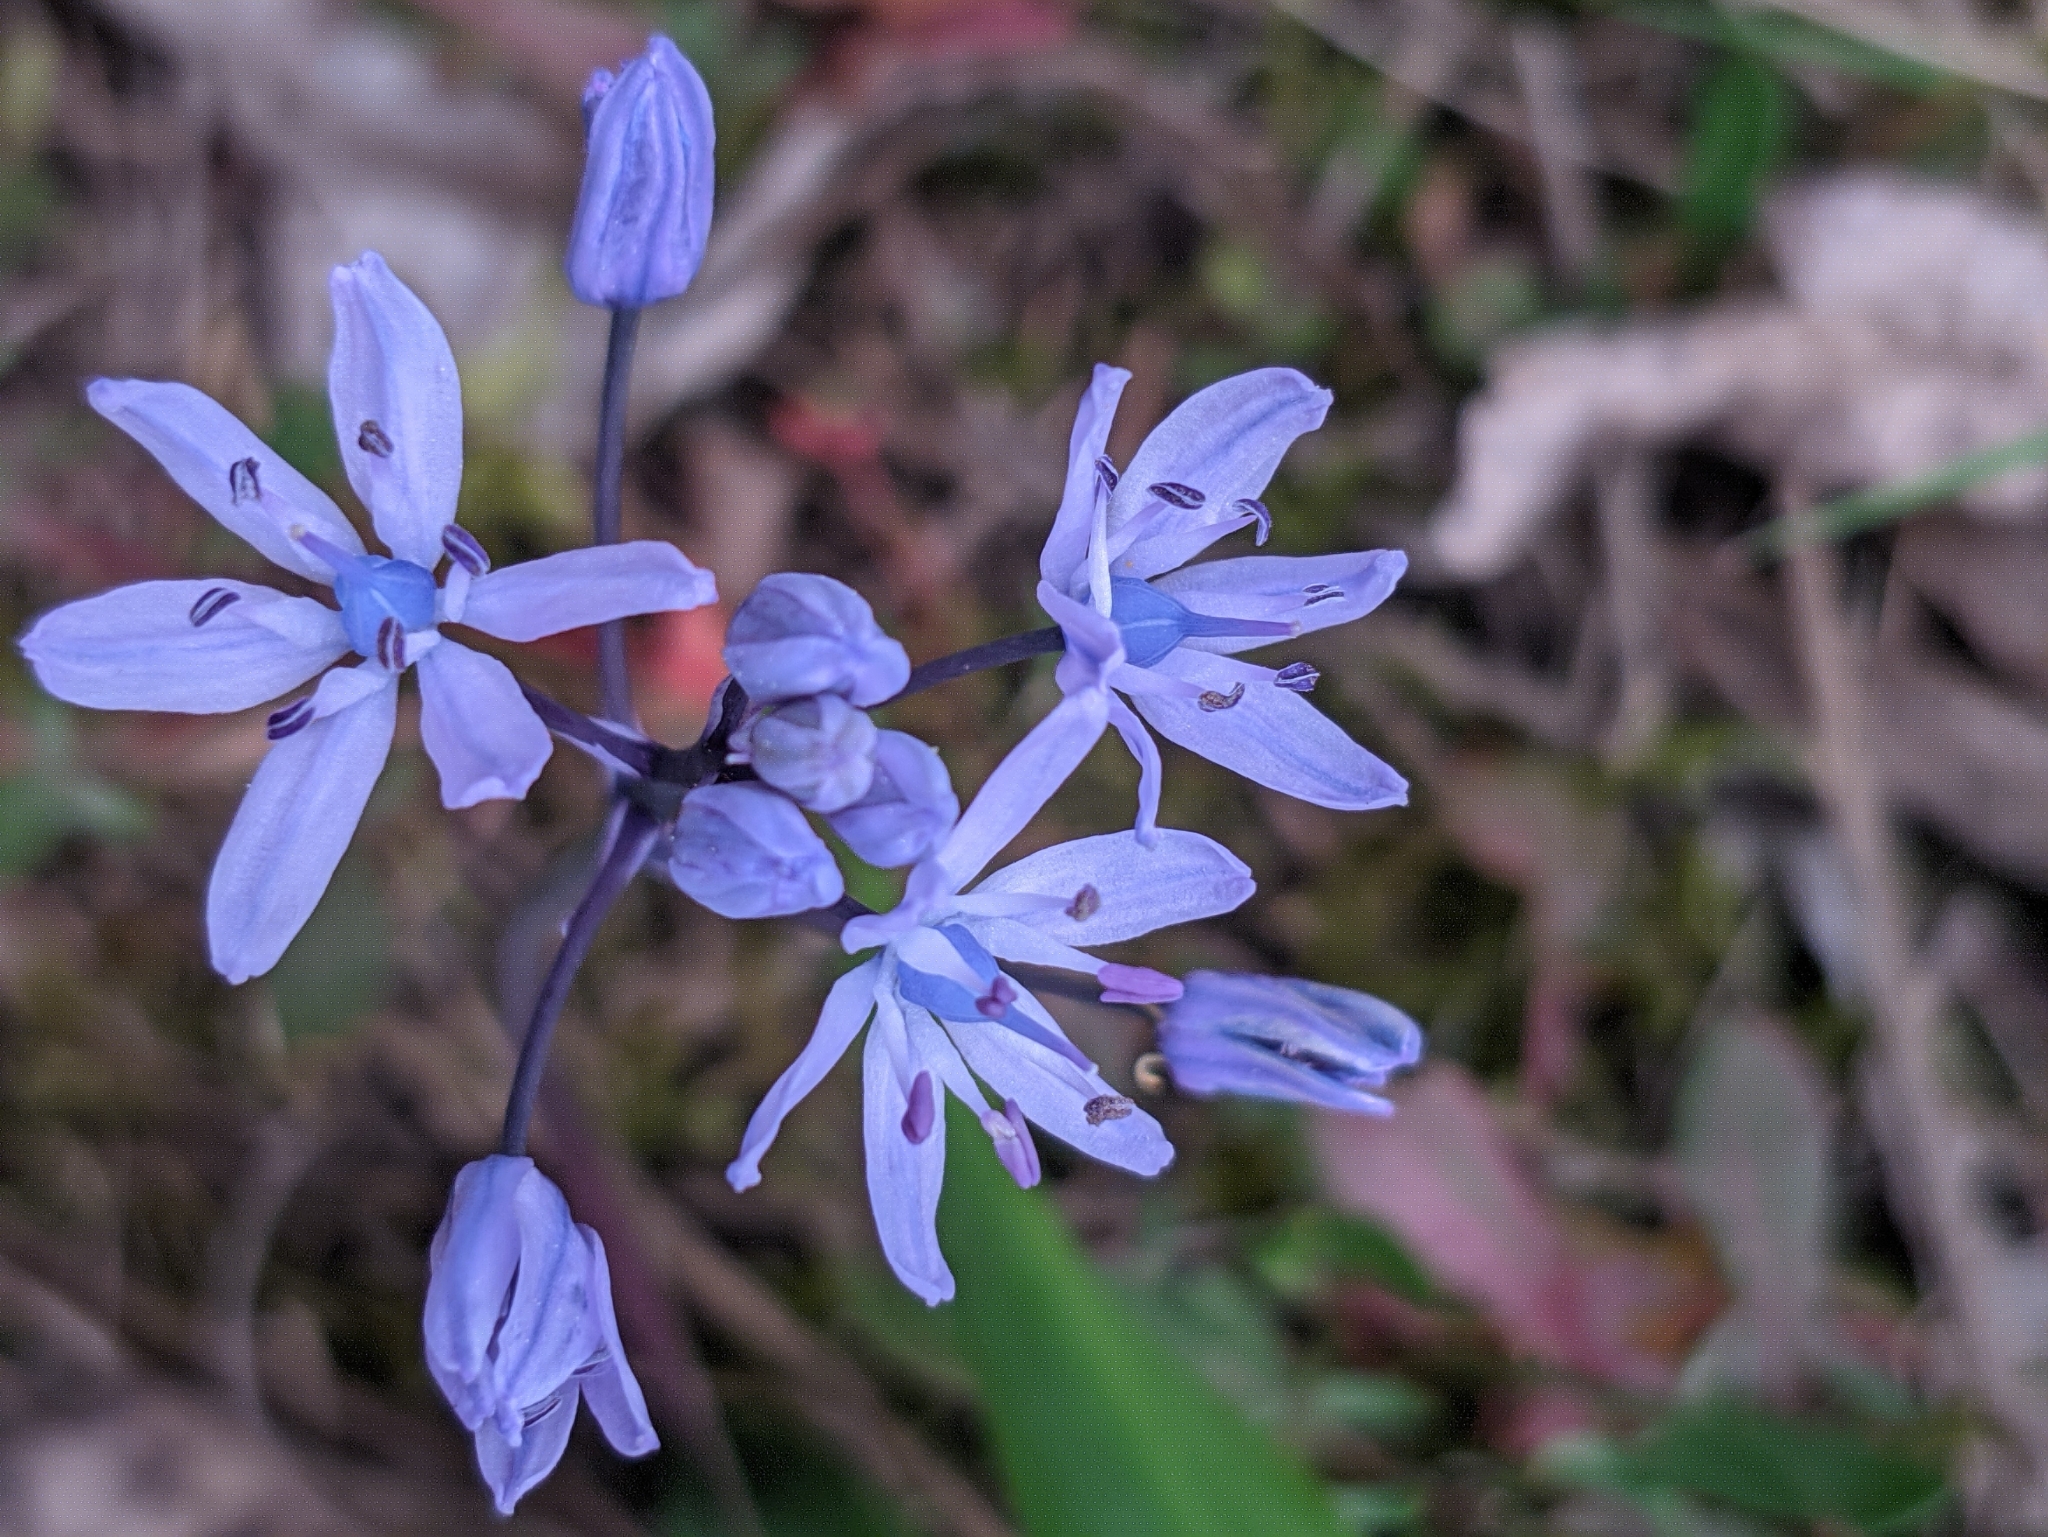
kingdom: Plantae
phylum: Tracheophyta
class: Liliopsida
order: Asparagales
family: Asparagaceae
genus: Scilla
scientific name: Scilla monophyllos
